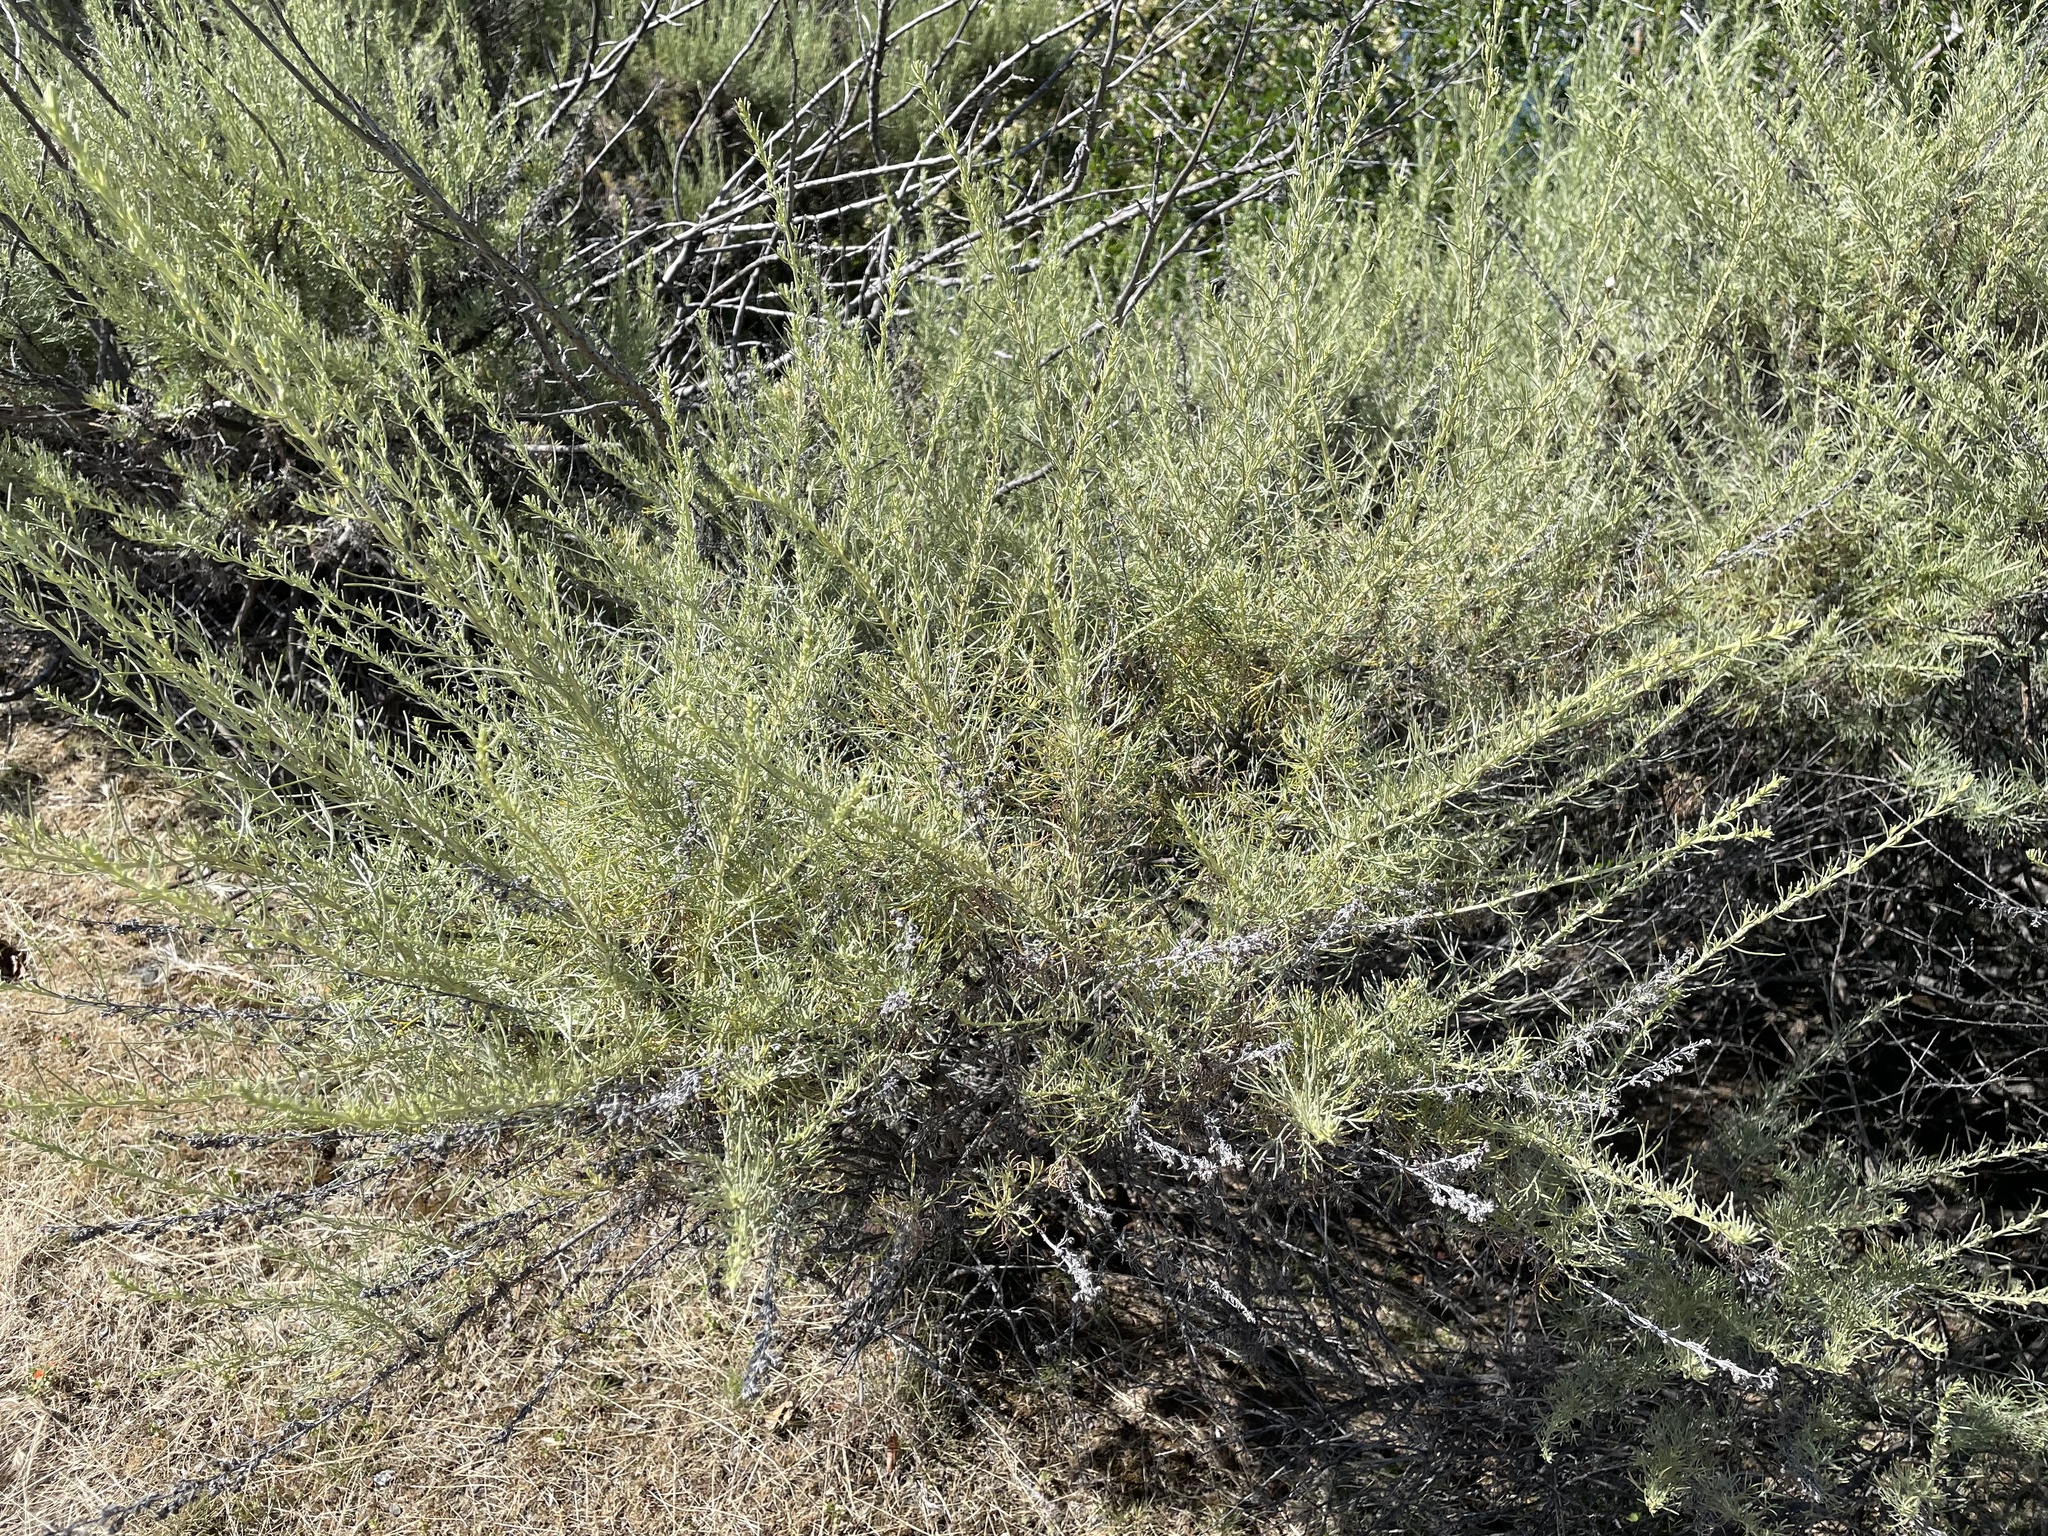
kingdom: Plantae
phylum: Tracheophyta
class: Magnoliopsida
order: Asterales
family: Asteraceae
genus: Artemisia
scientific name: Artemisia californica
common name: California sagebrush
